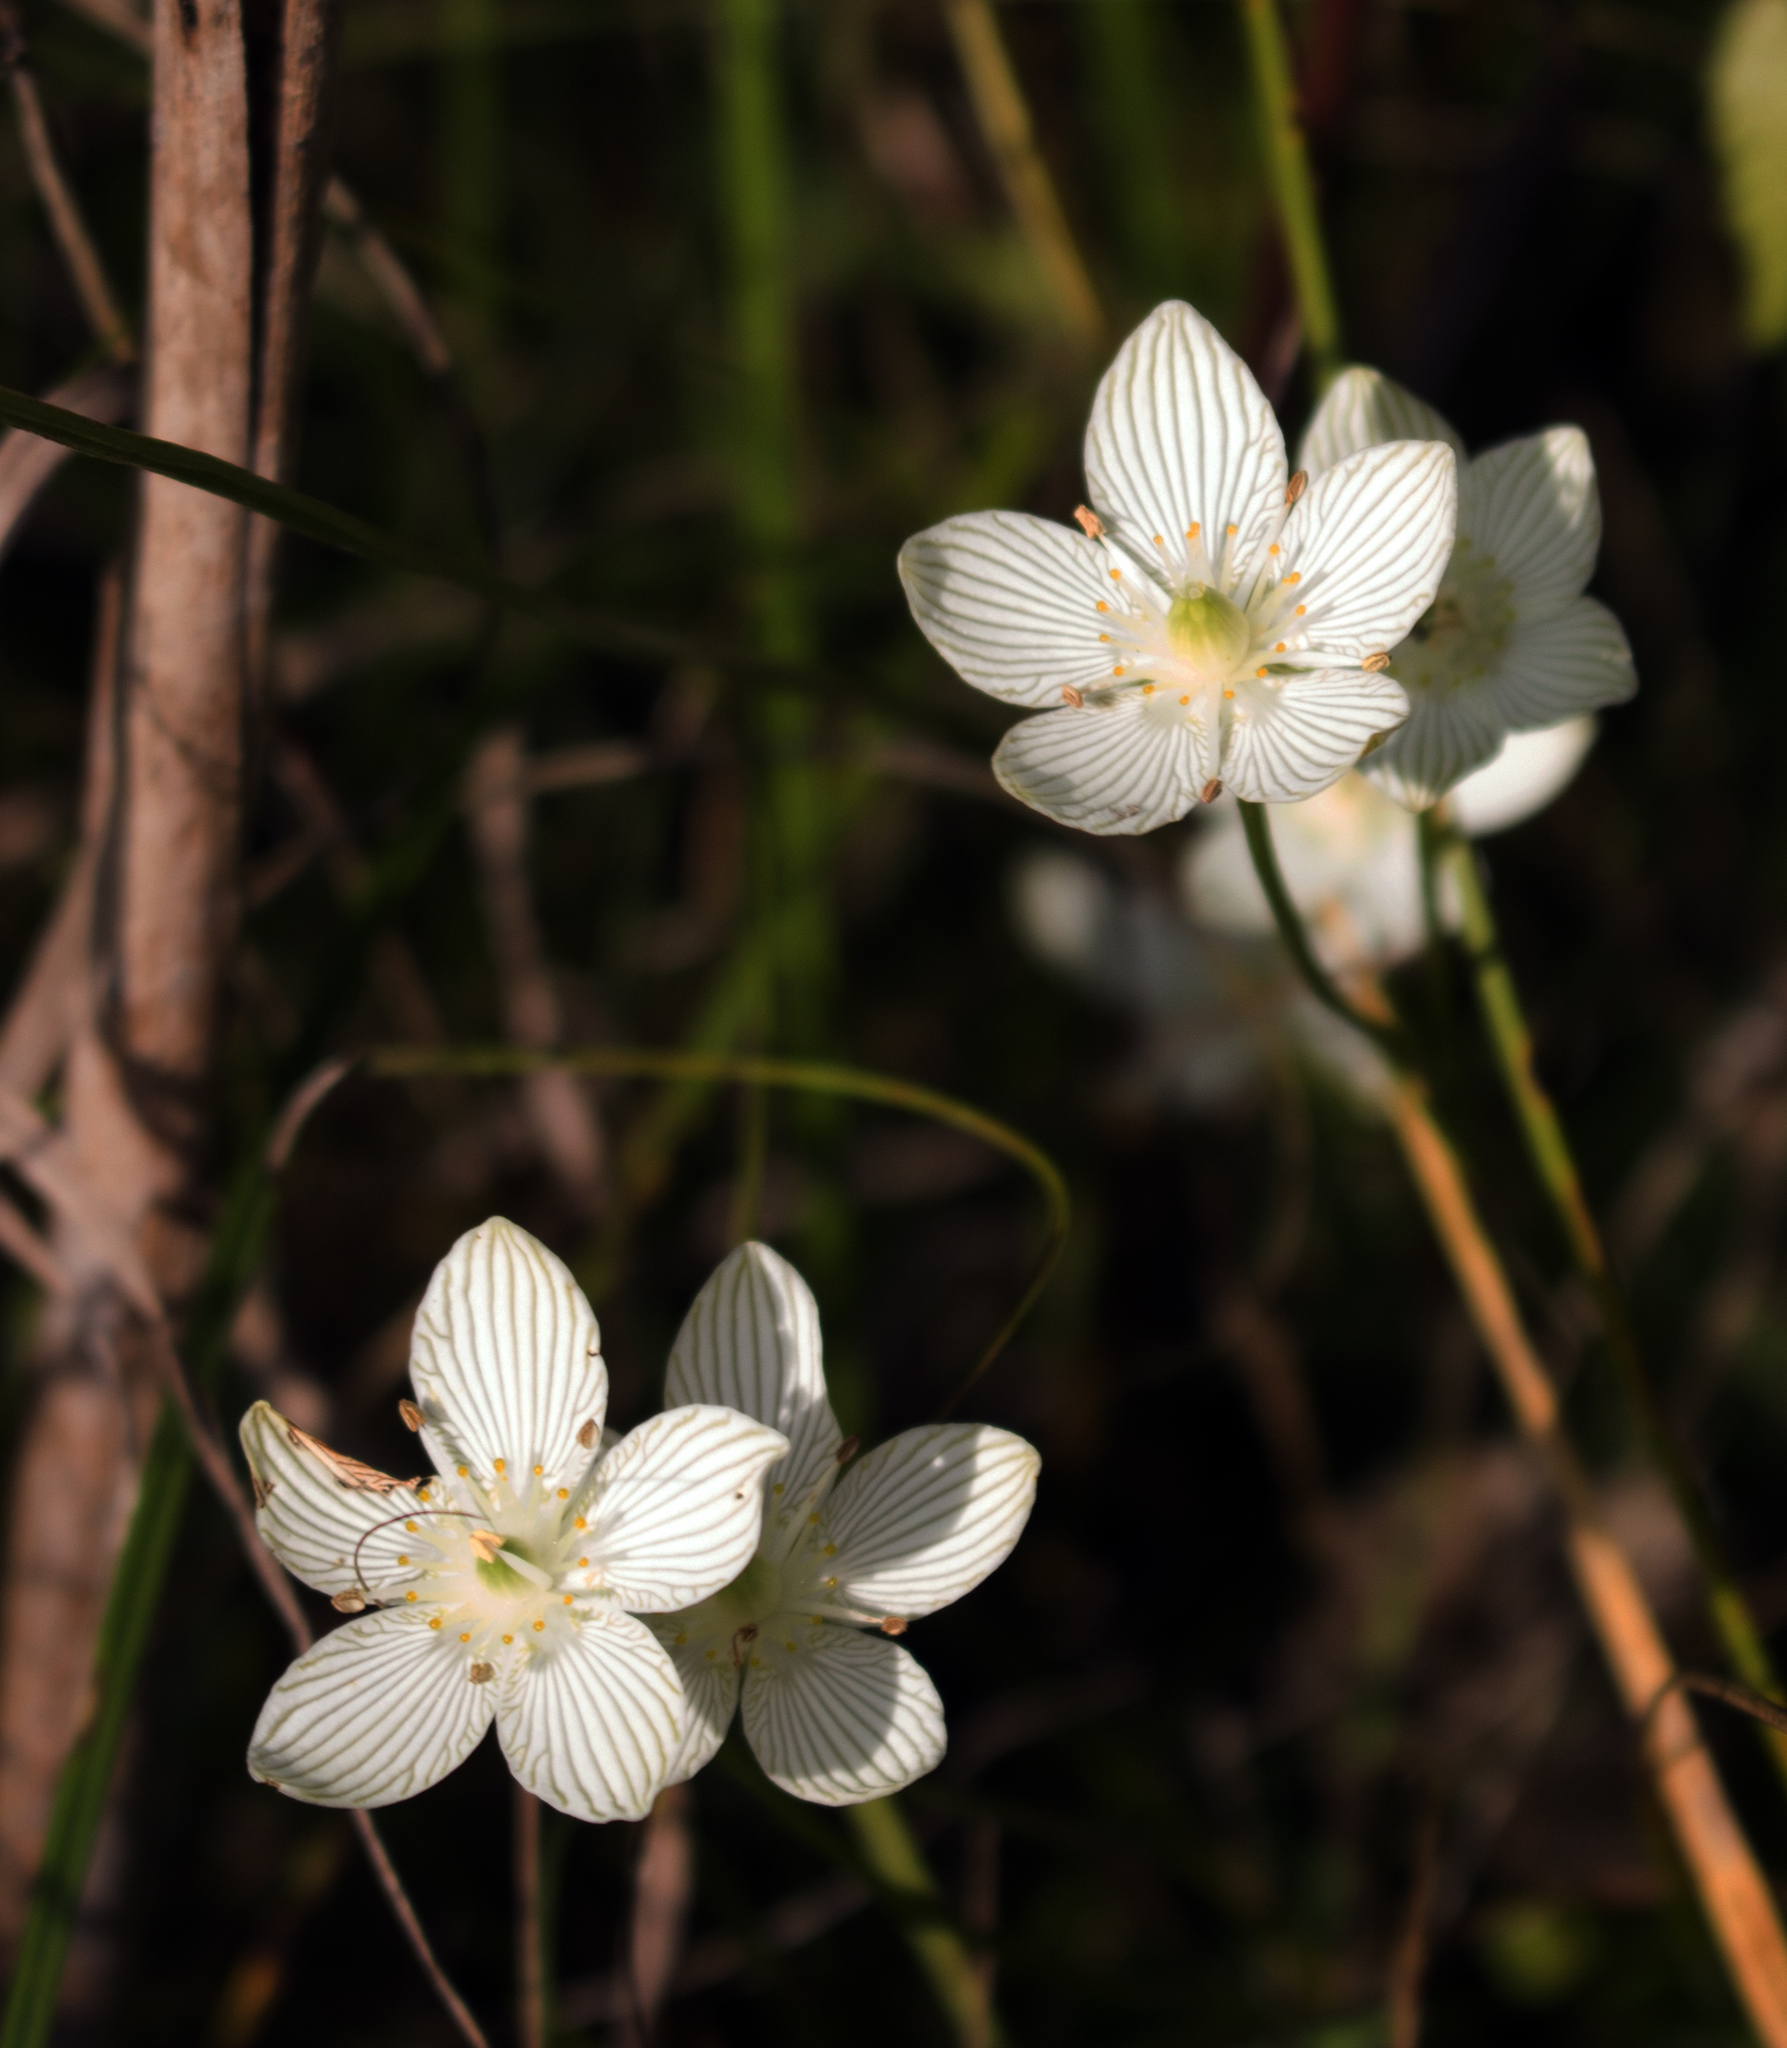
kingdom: Plantae
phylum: Tracheophyta
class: Magnoliopsida
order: Celastrales
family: Parnassiaceae
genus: Parnassia
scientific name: Parnassia glauca
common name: American grass-of-parnassus
